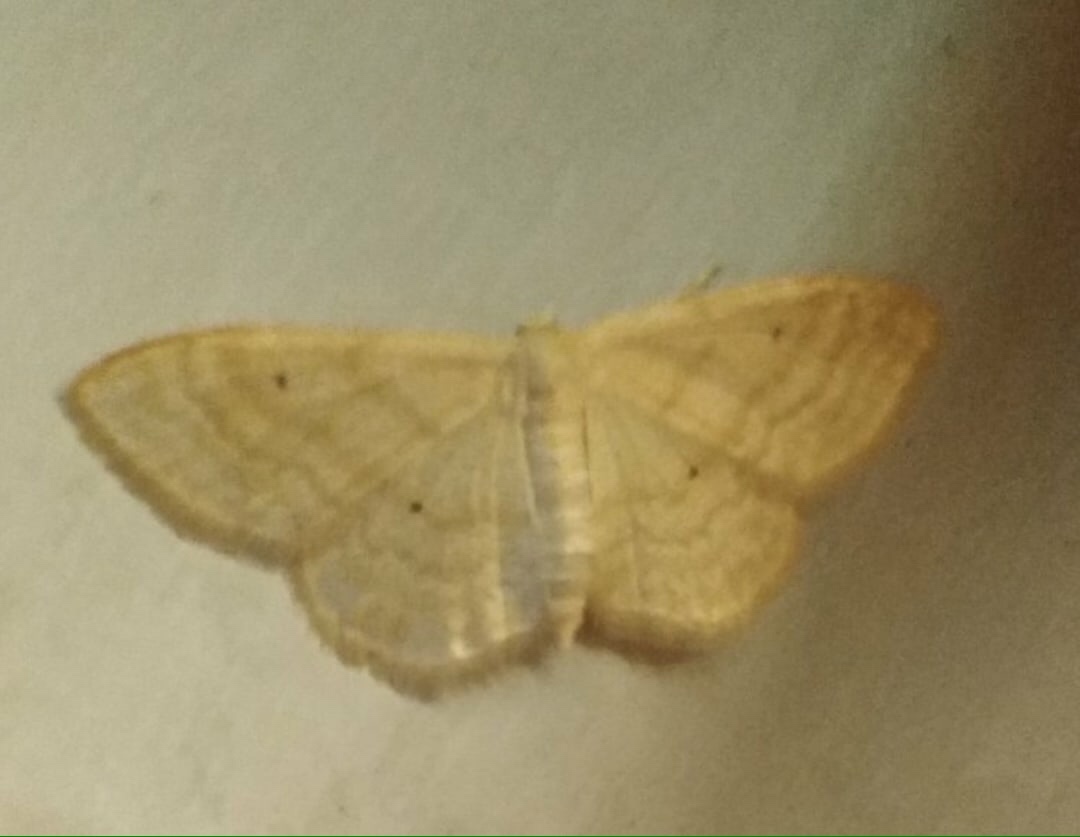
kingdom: Animalia
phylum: Arthropoda
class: Insecta
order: Lepidoptera
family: Geometridae
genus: Scopula
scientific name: Scopula immutata
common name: Lesser cream wave
